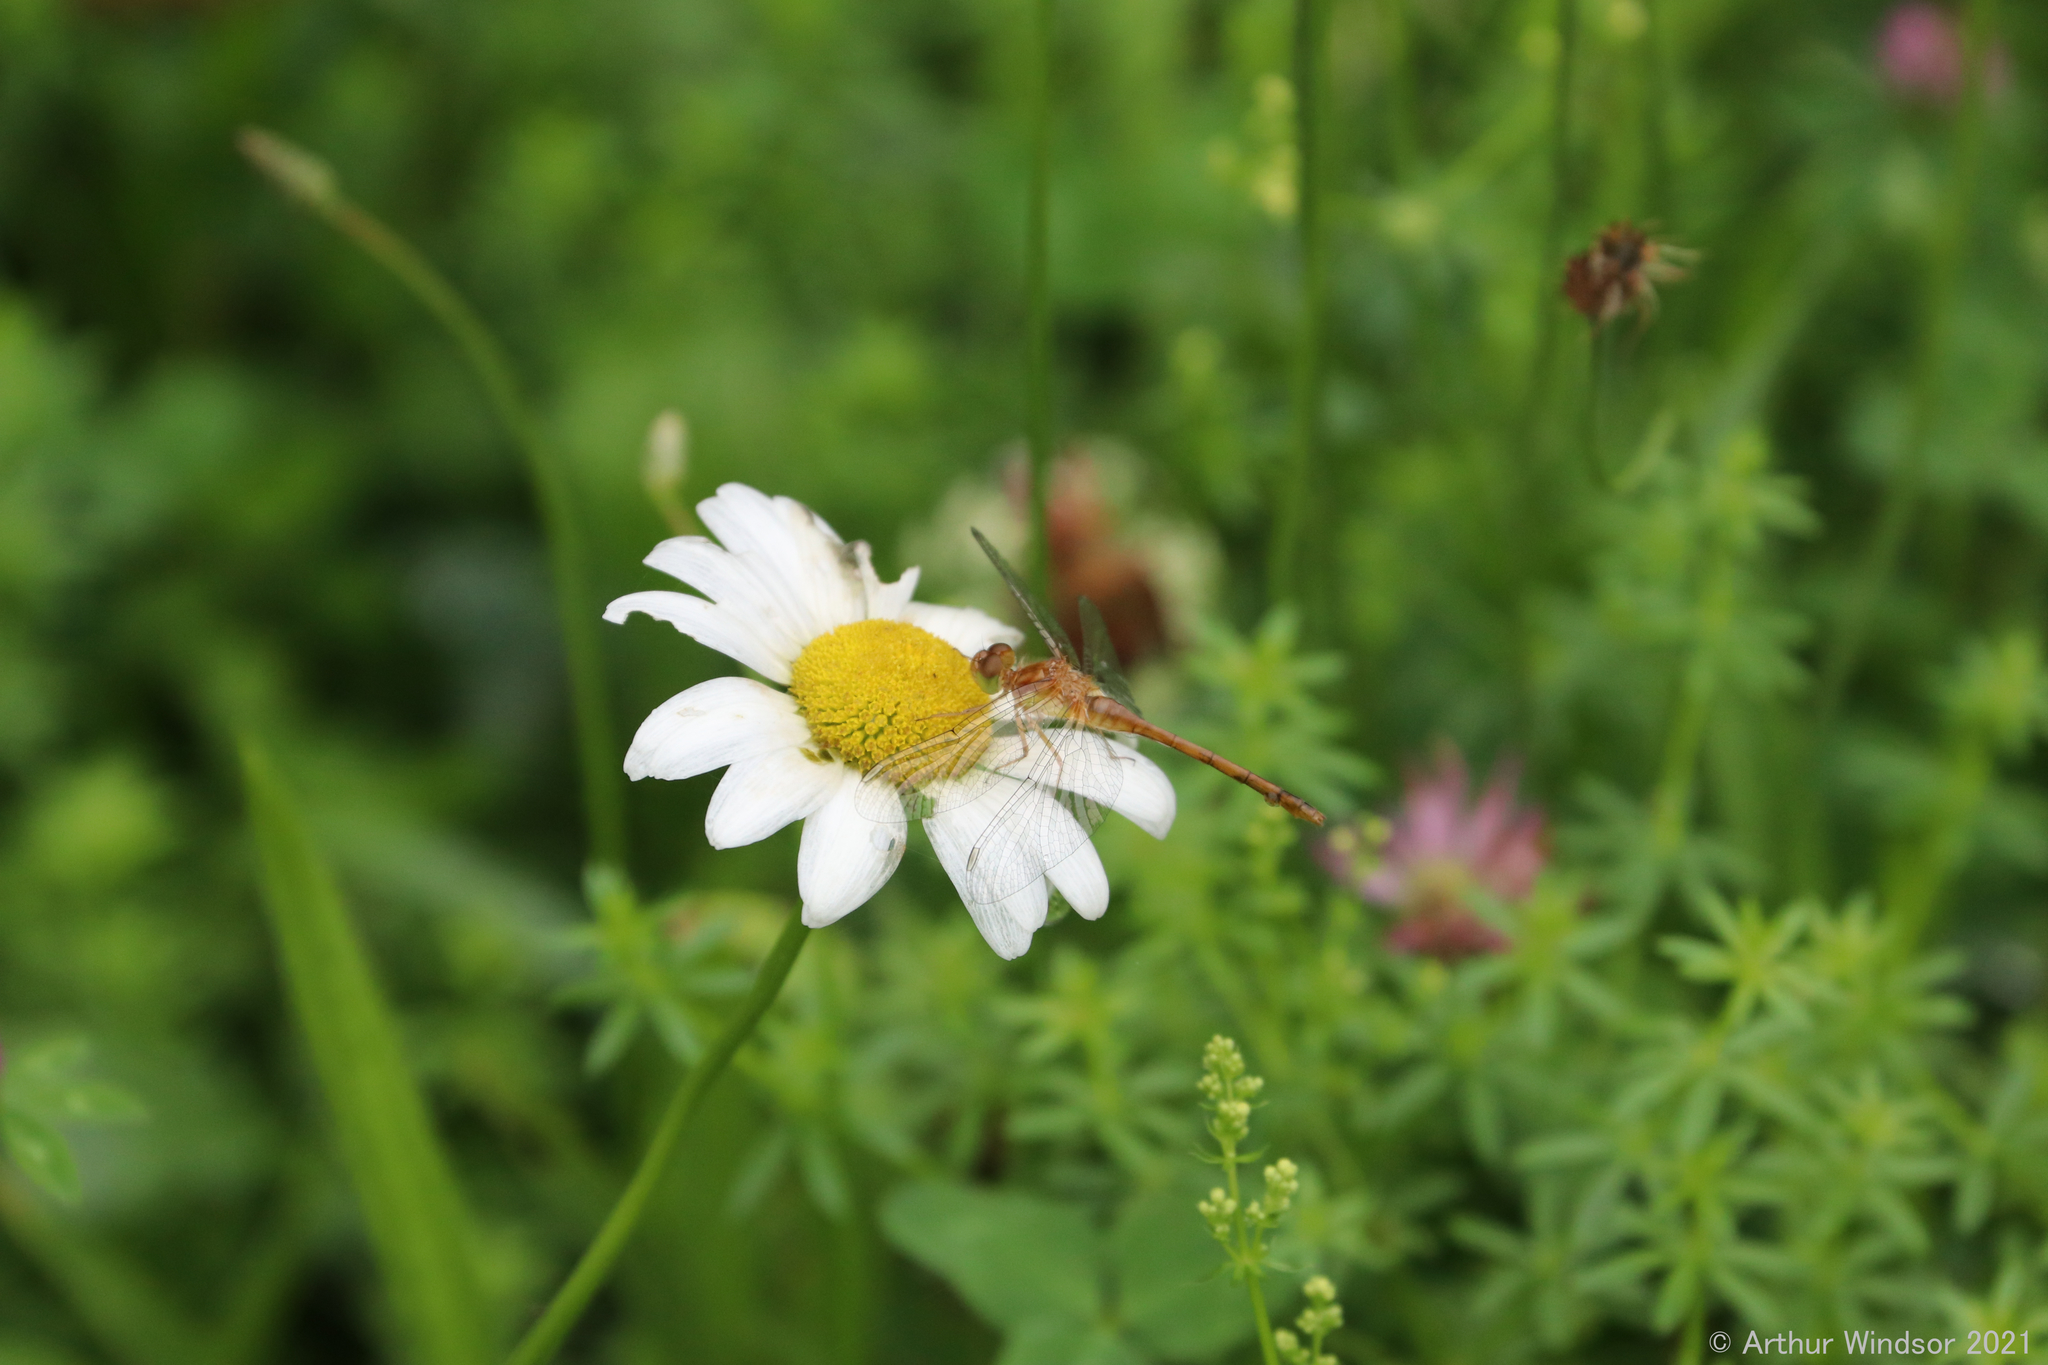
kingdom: Animalia
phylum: Arthropoda
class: Insecta
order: Odonata
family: Libellulidae
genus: Sympetrum
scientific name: Sympetrum vicinum
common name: Autumn meadowhawk
